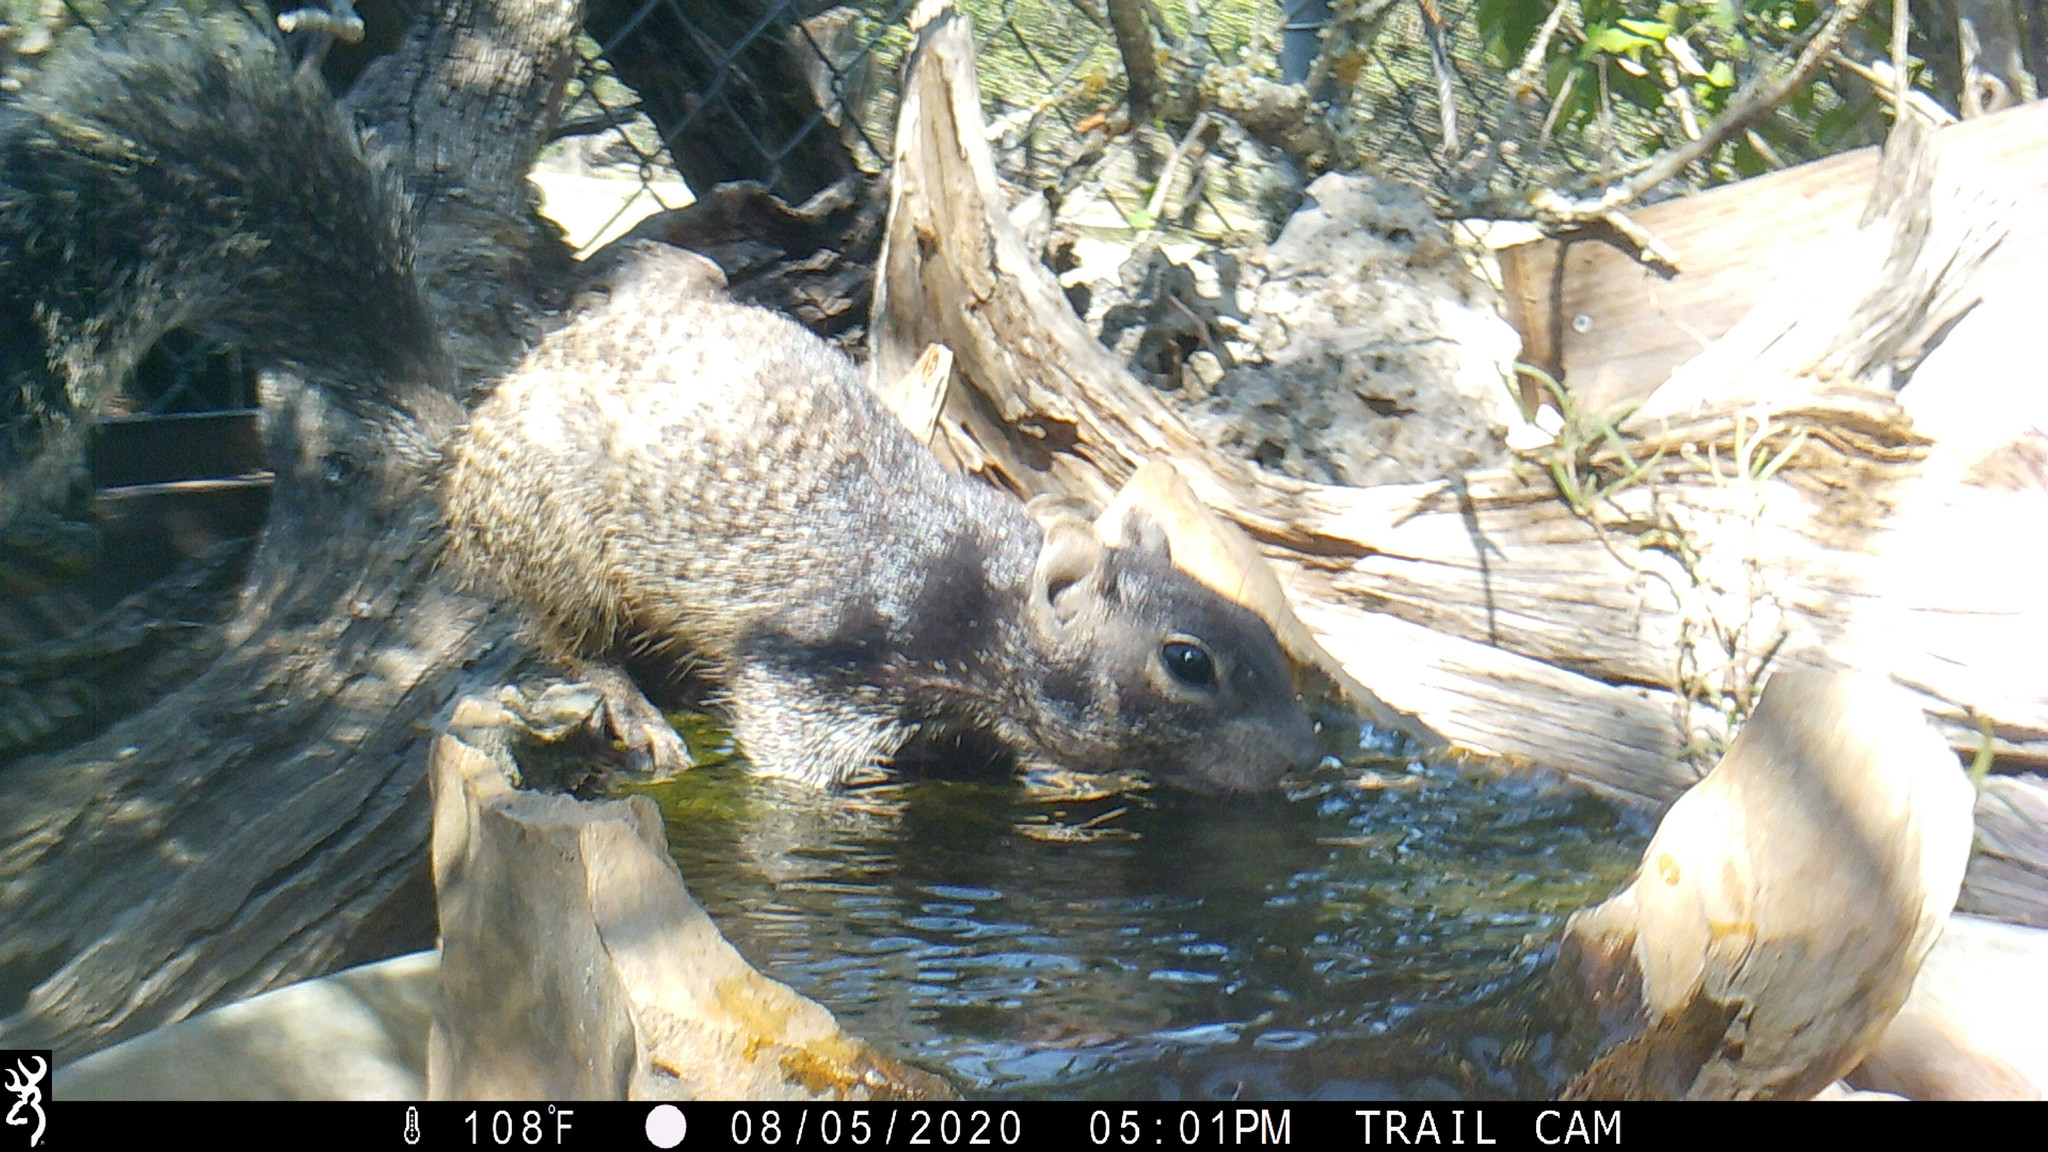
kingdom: Animalia
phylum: Chordata
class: Mammalia
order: Rodentia
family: Sciuridae
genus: Otospermophilus
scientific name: Otospermophilus variegatus
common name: Rock squirrel
